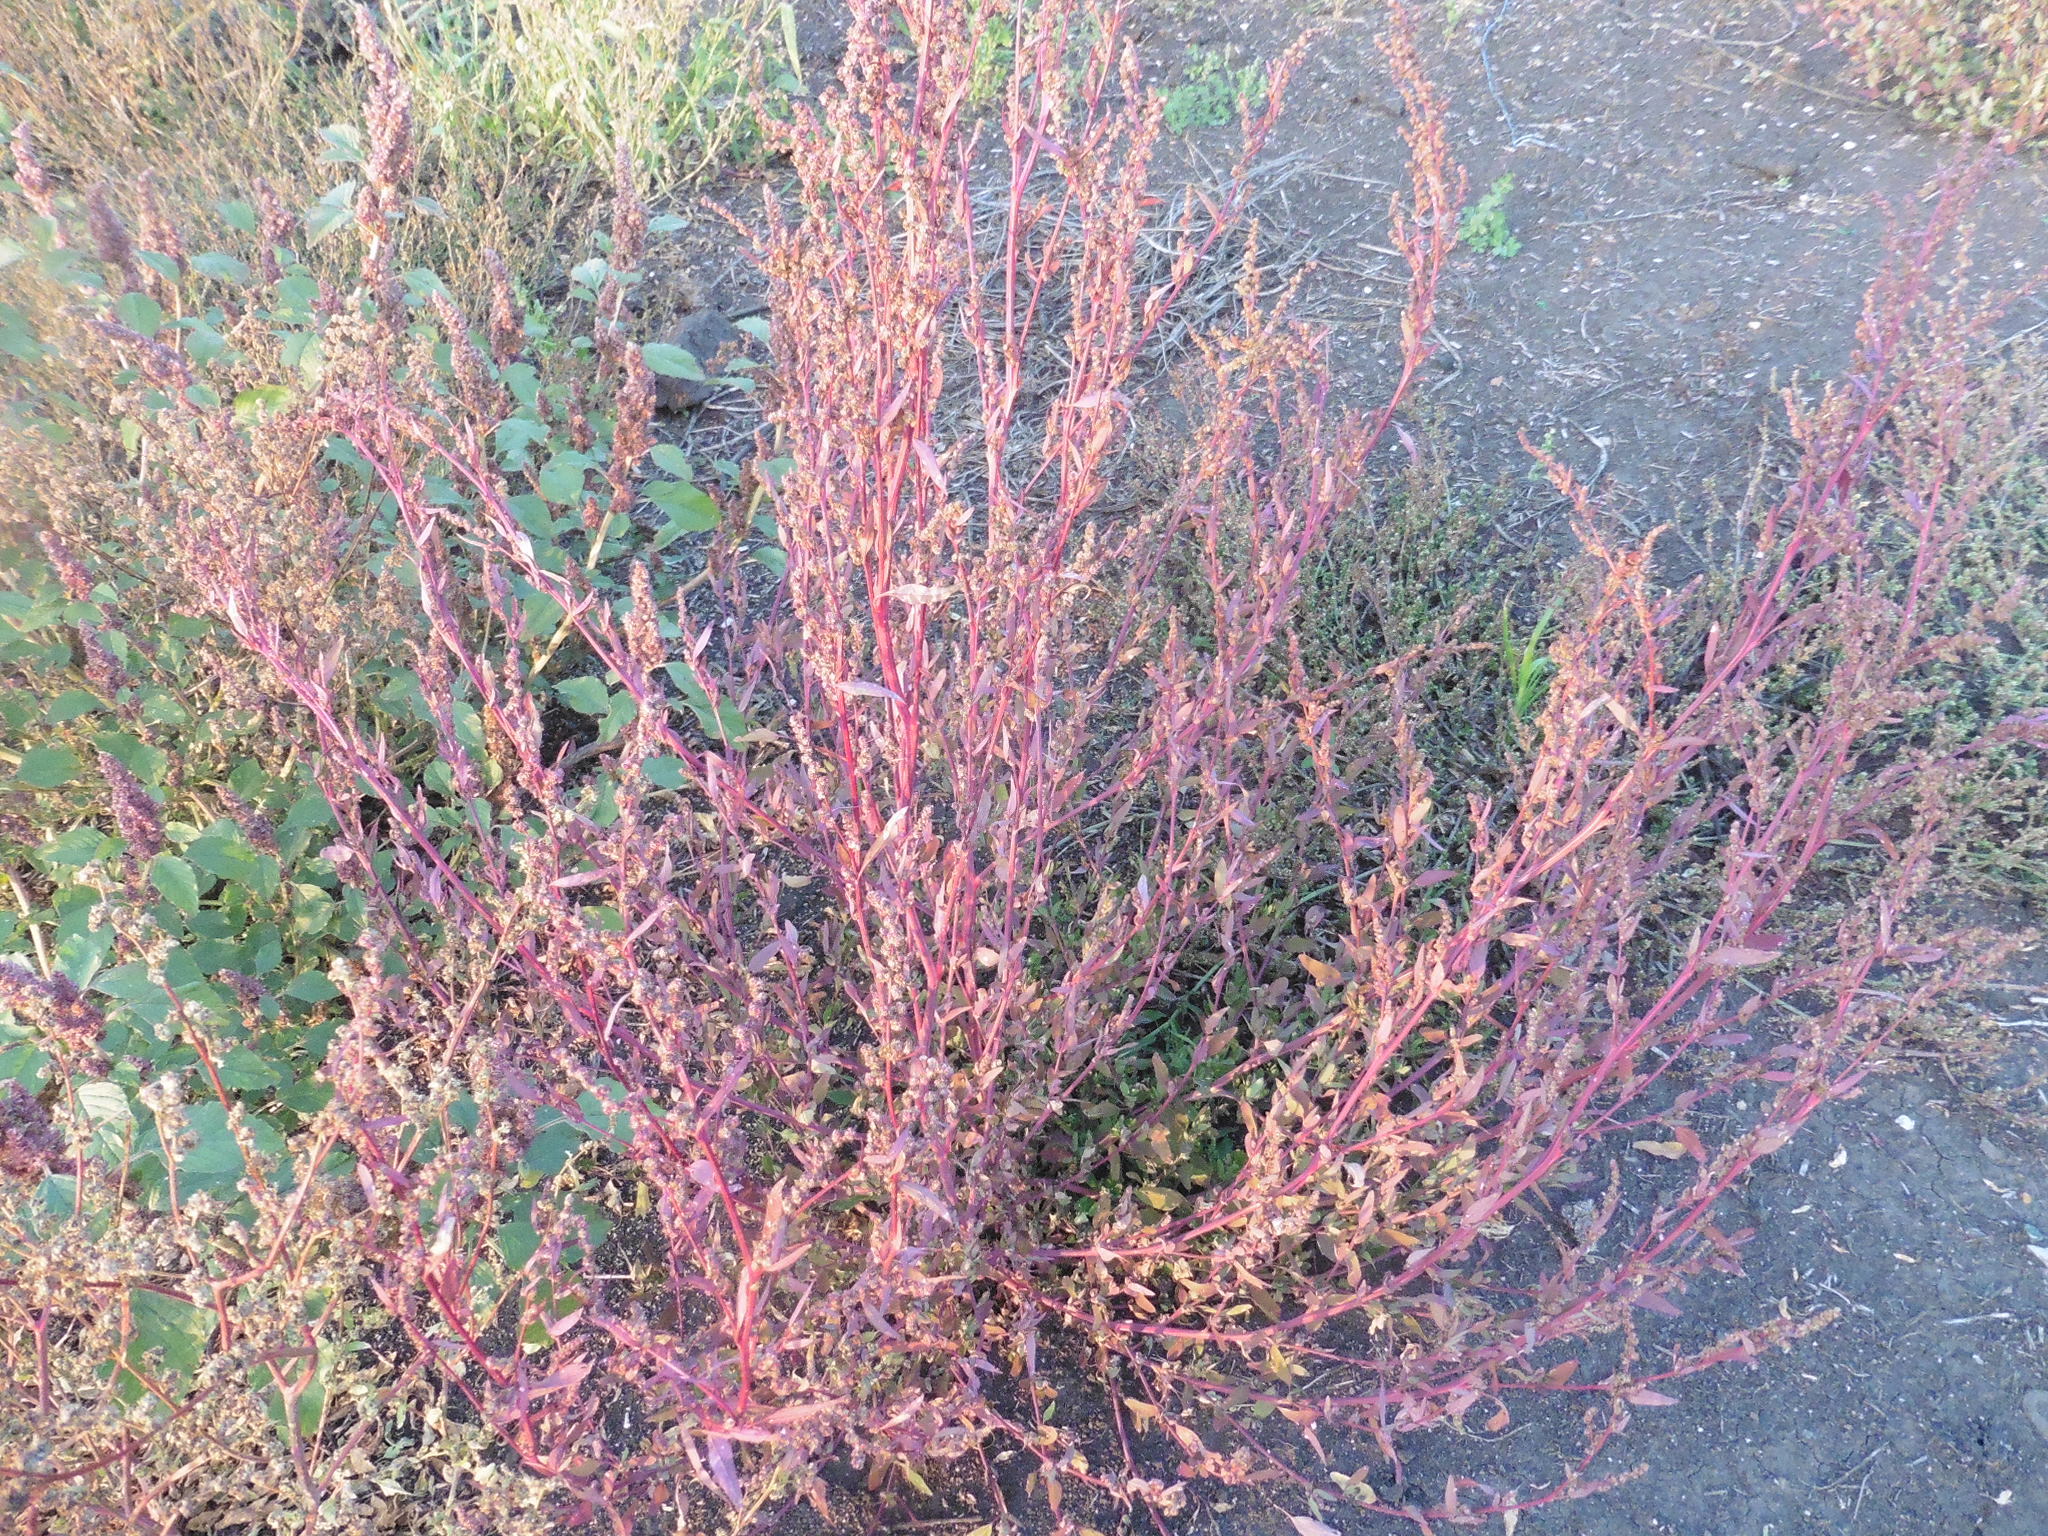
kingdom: Plantae
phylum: Tracheophyta
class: Magnoliopsida
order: Caryophyllales
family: Amaranthaceae
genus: Chenopodium
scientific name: Chenopodium album
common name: Fat-hen
